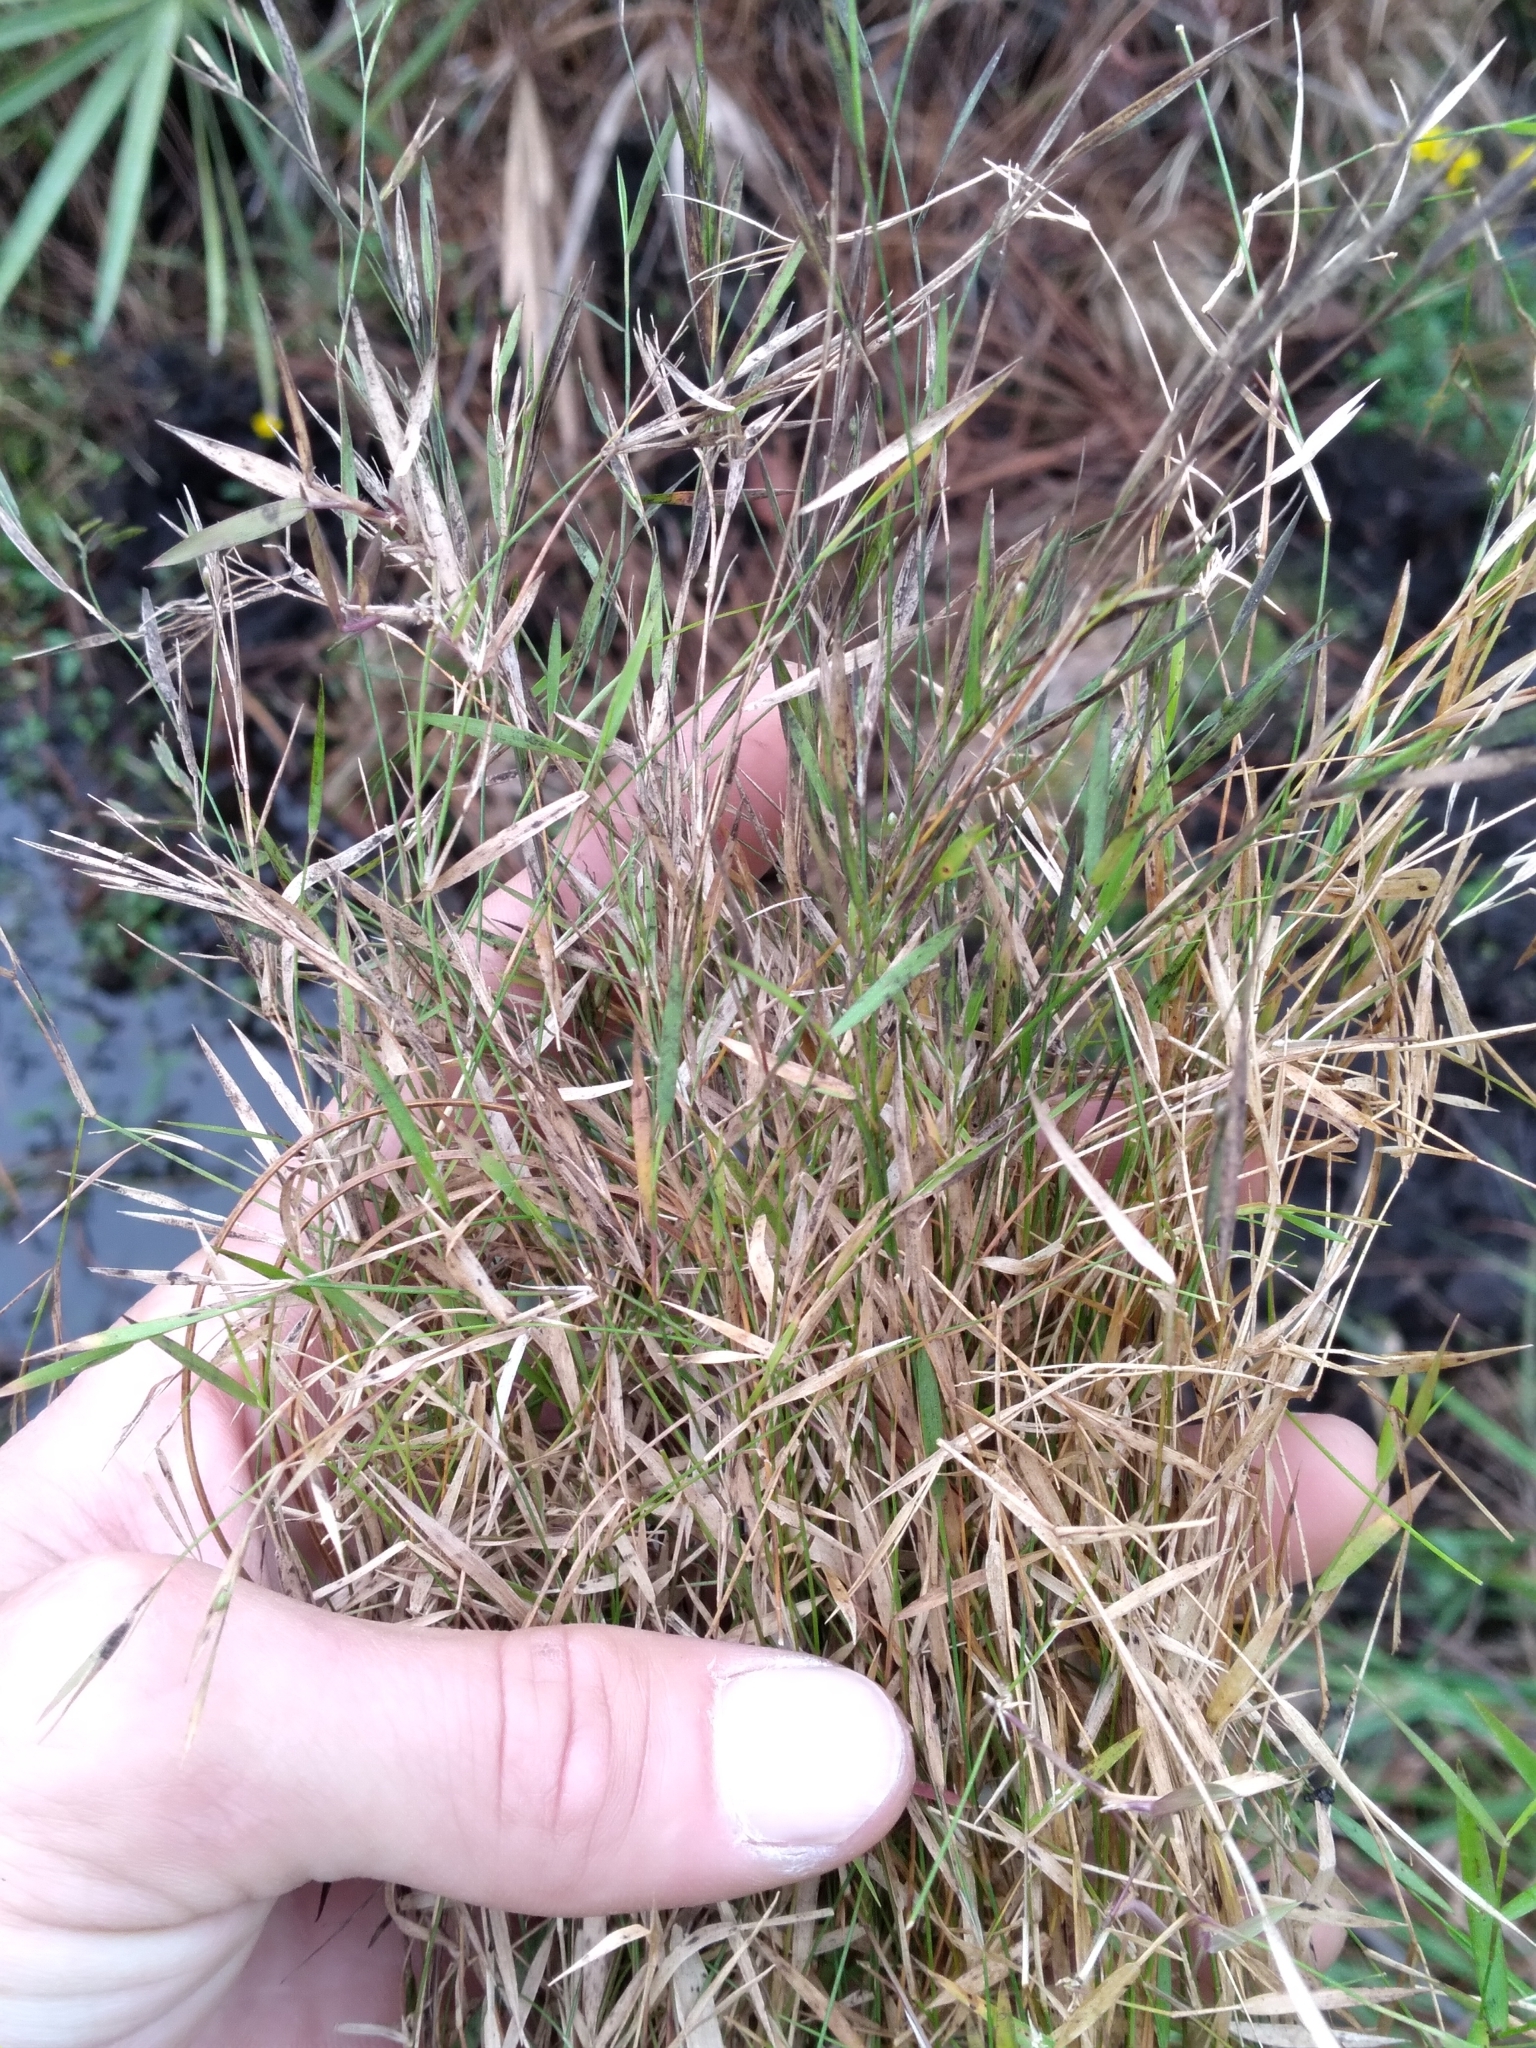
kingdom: Plantae
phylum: Tracheophyta
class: Liliopsida
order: Poales
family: Poaceae
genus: Dichanthelium
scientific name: Dichanthelium lucidum
